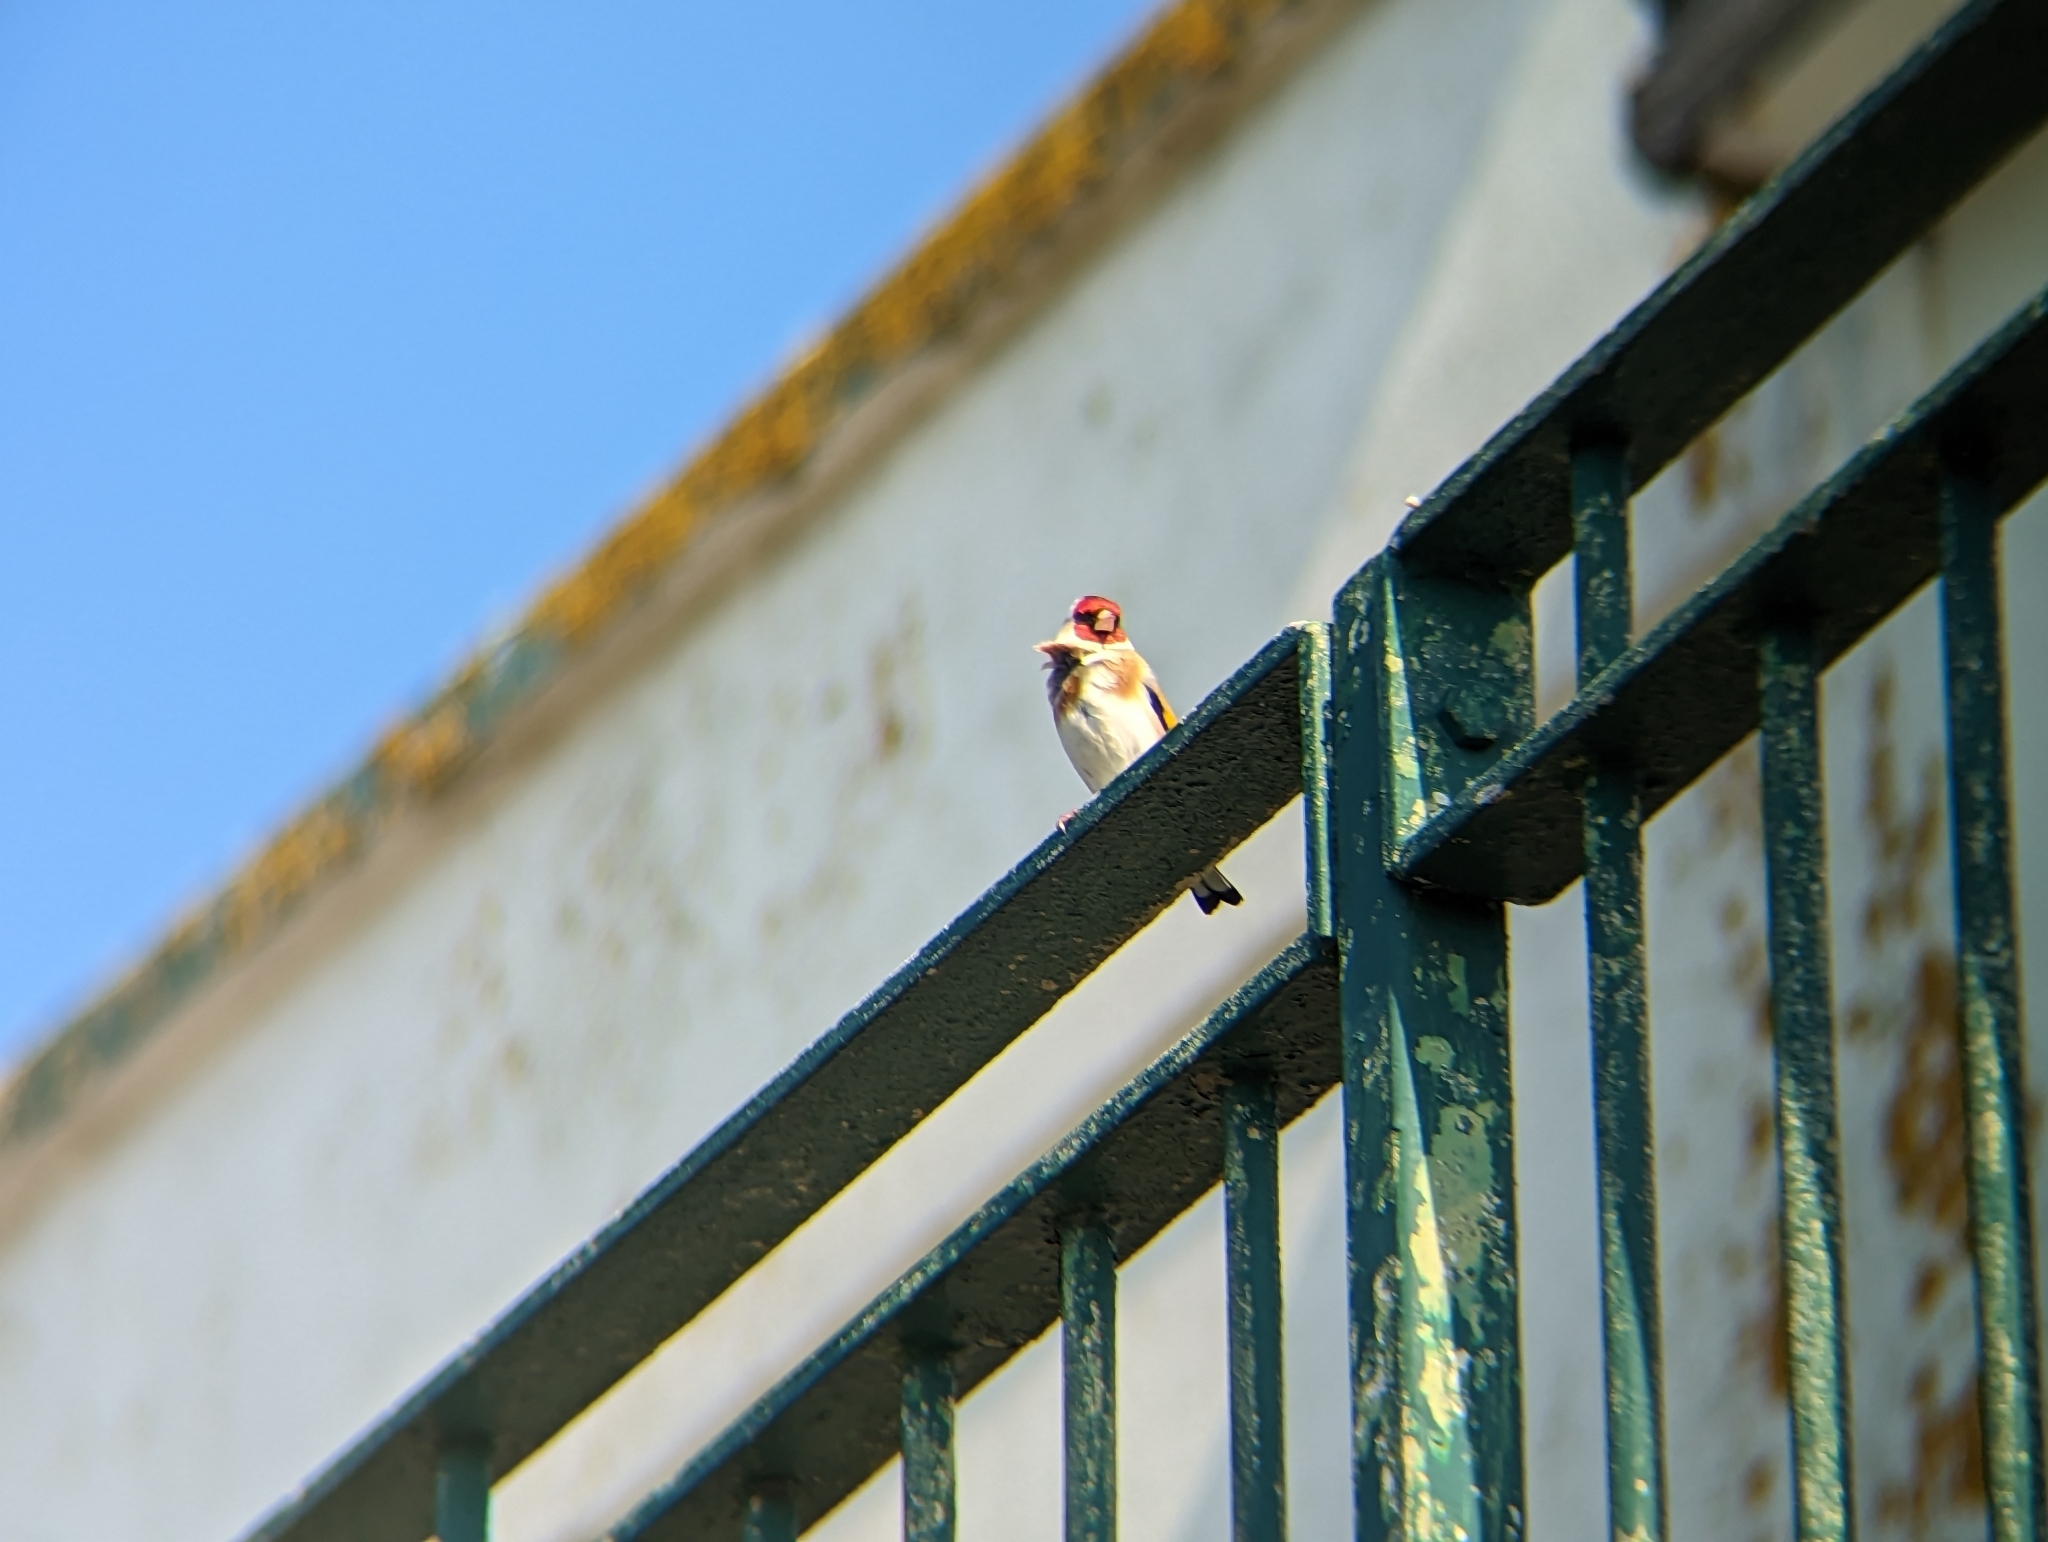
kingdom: Animalia
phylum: Chordata
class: Aves
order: Passeriformes
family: Fringillidae
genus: Carduelis
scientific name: Carduelis carduelis
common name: European goldfinch
